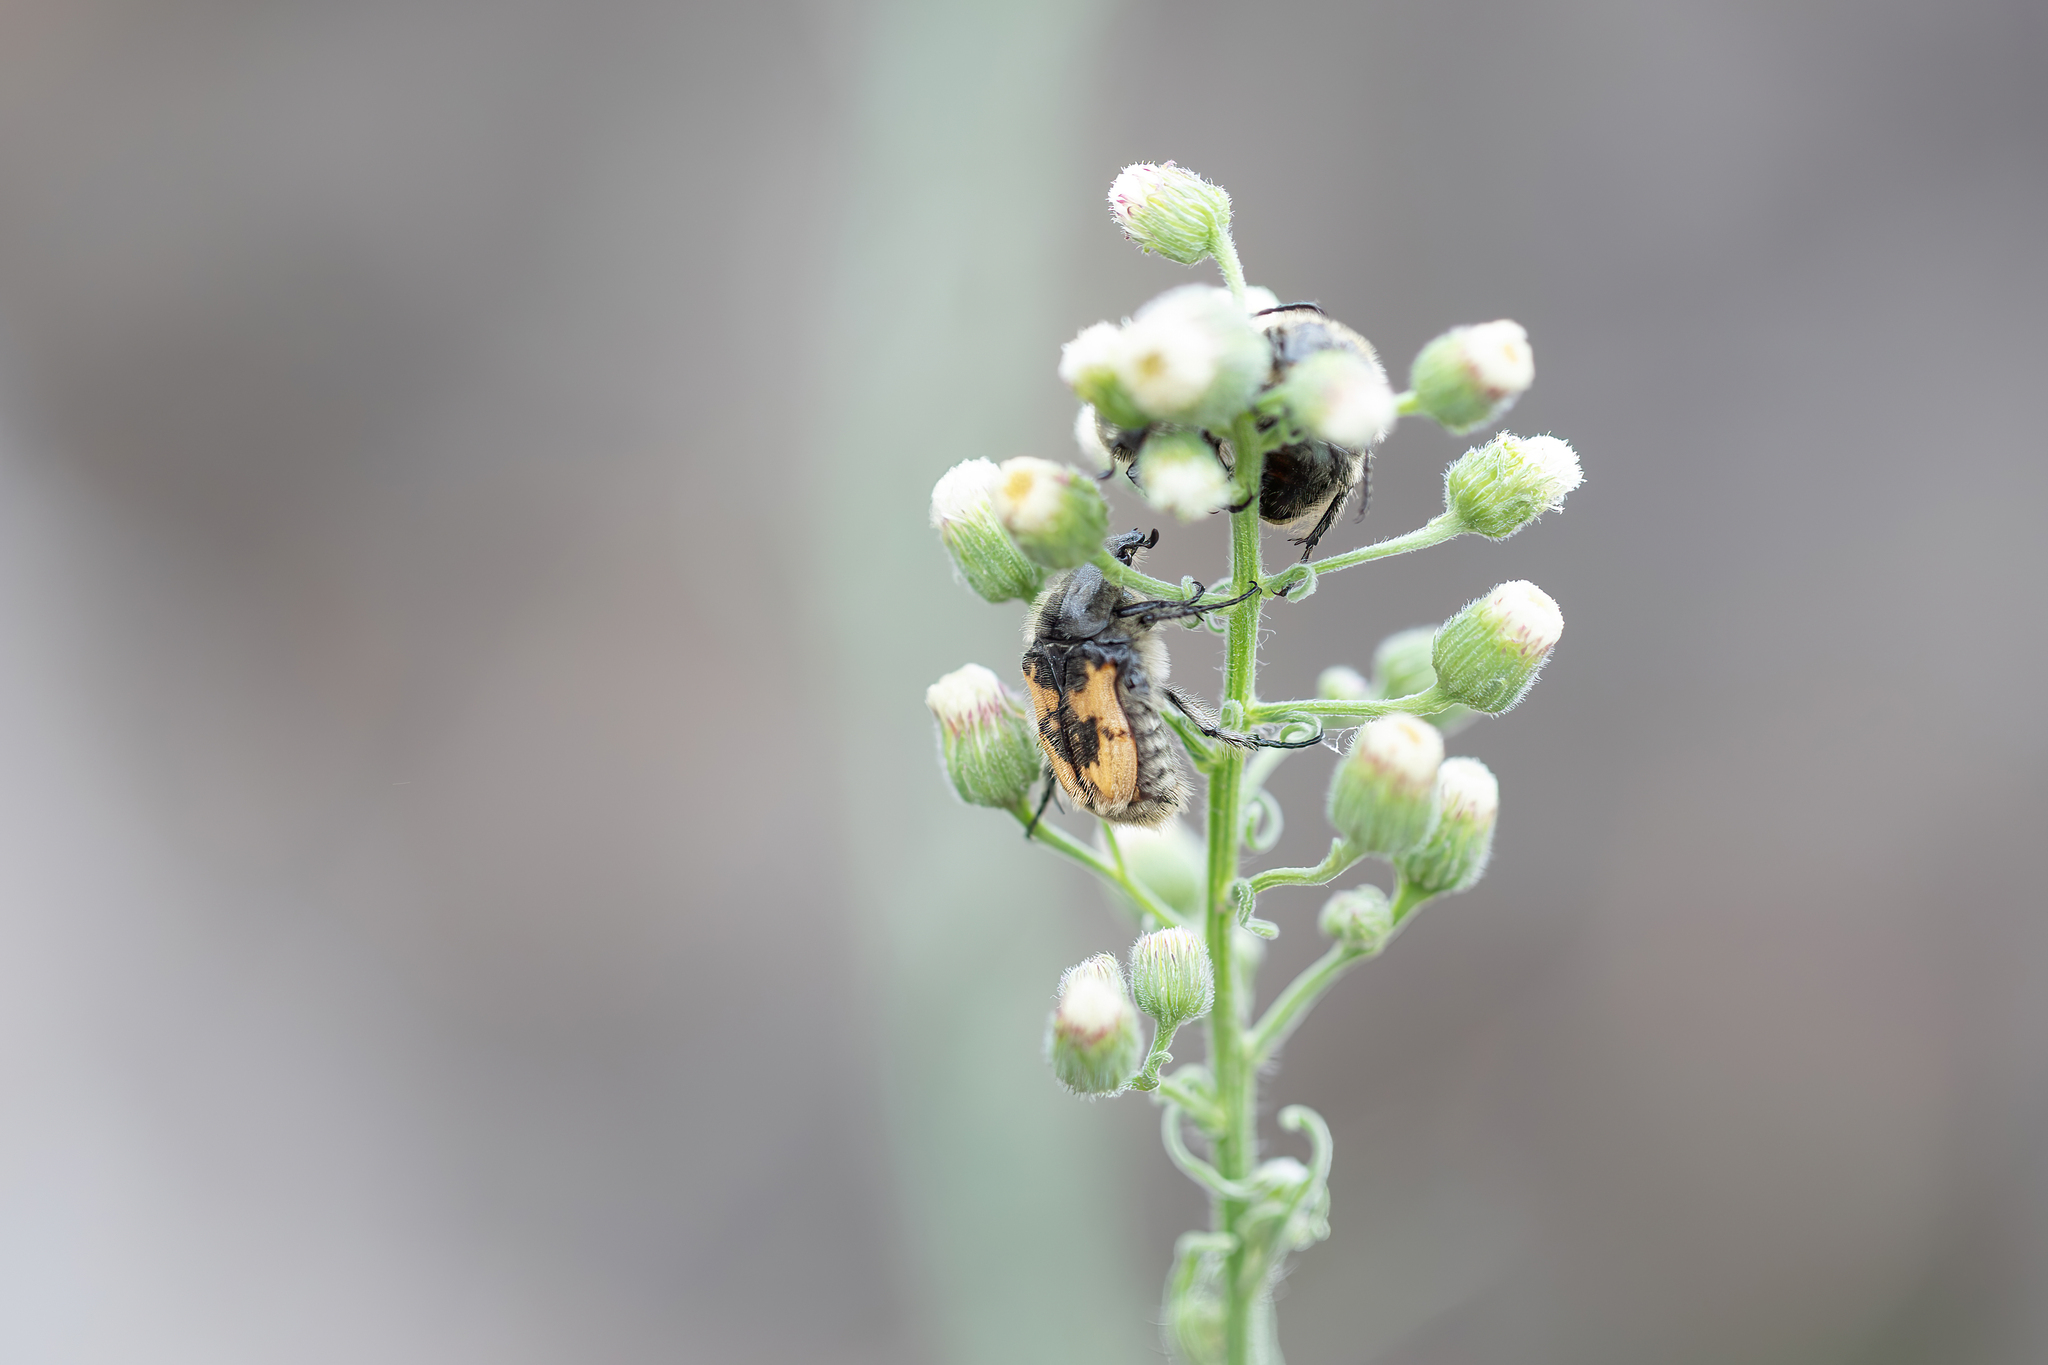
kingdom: Animalia
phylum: Arthropoda
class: Insecta
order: Coleoptera
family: Scarabaeidae
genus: Euphoria
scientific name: Euphoria basalis
